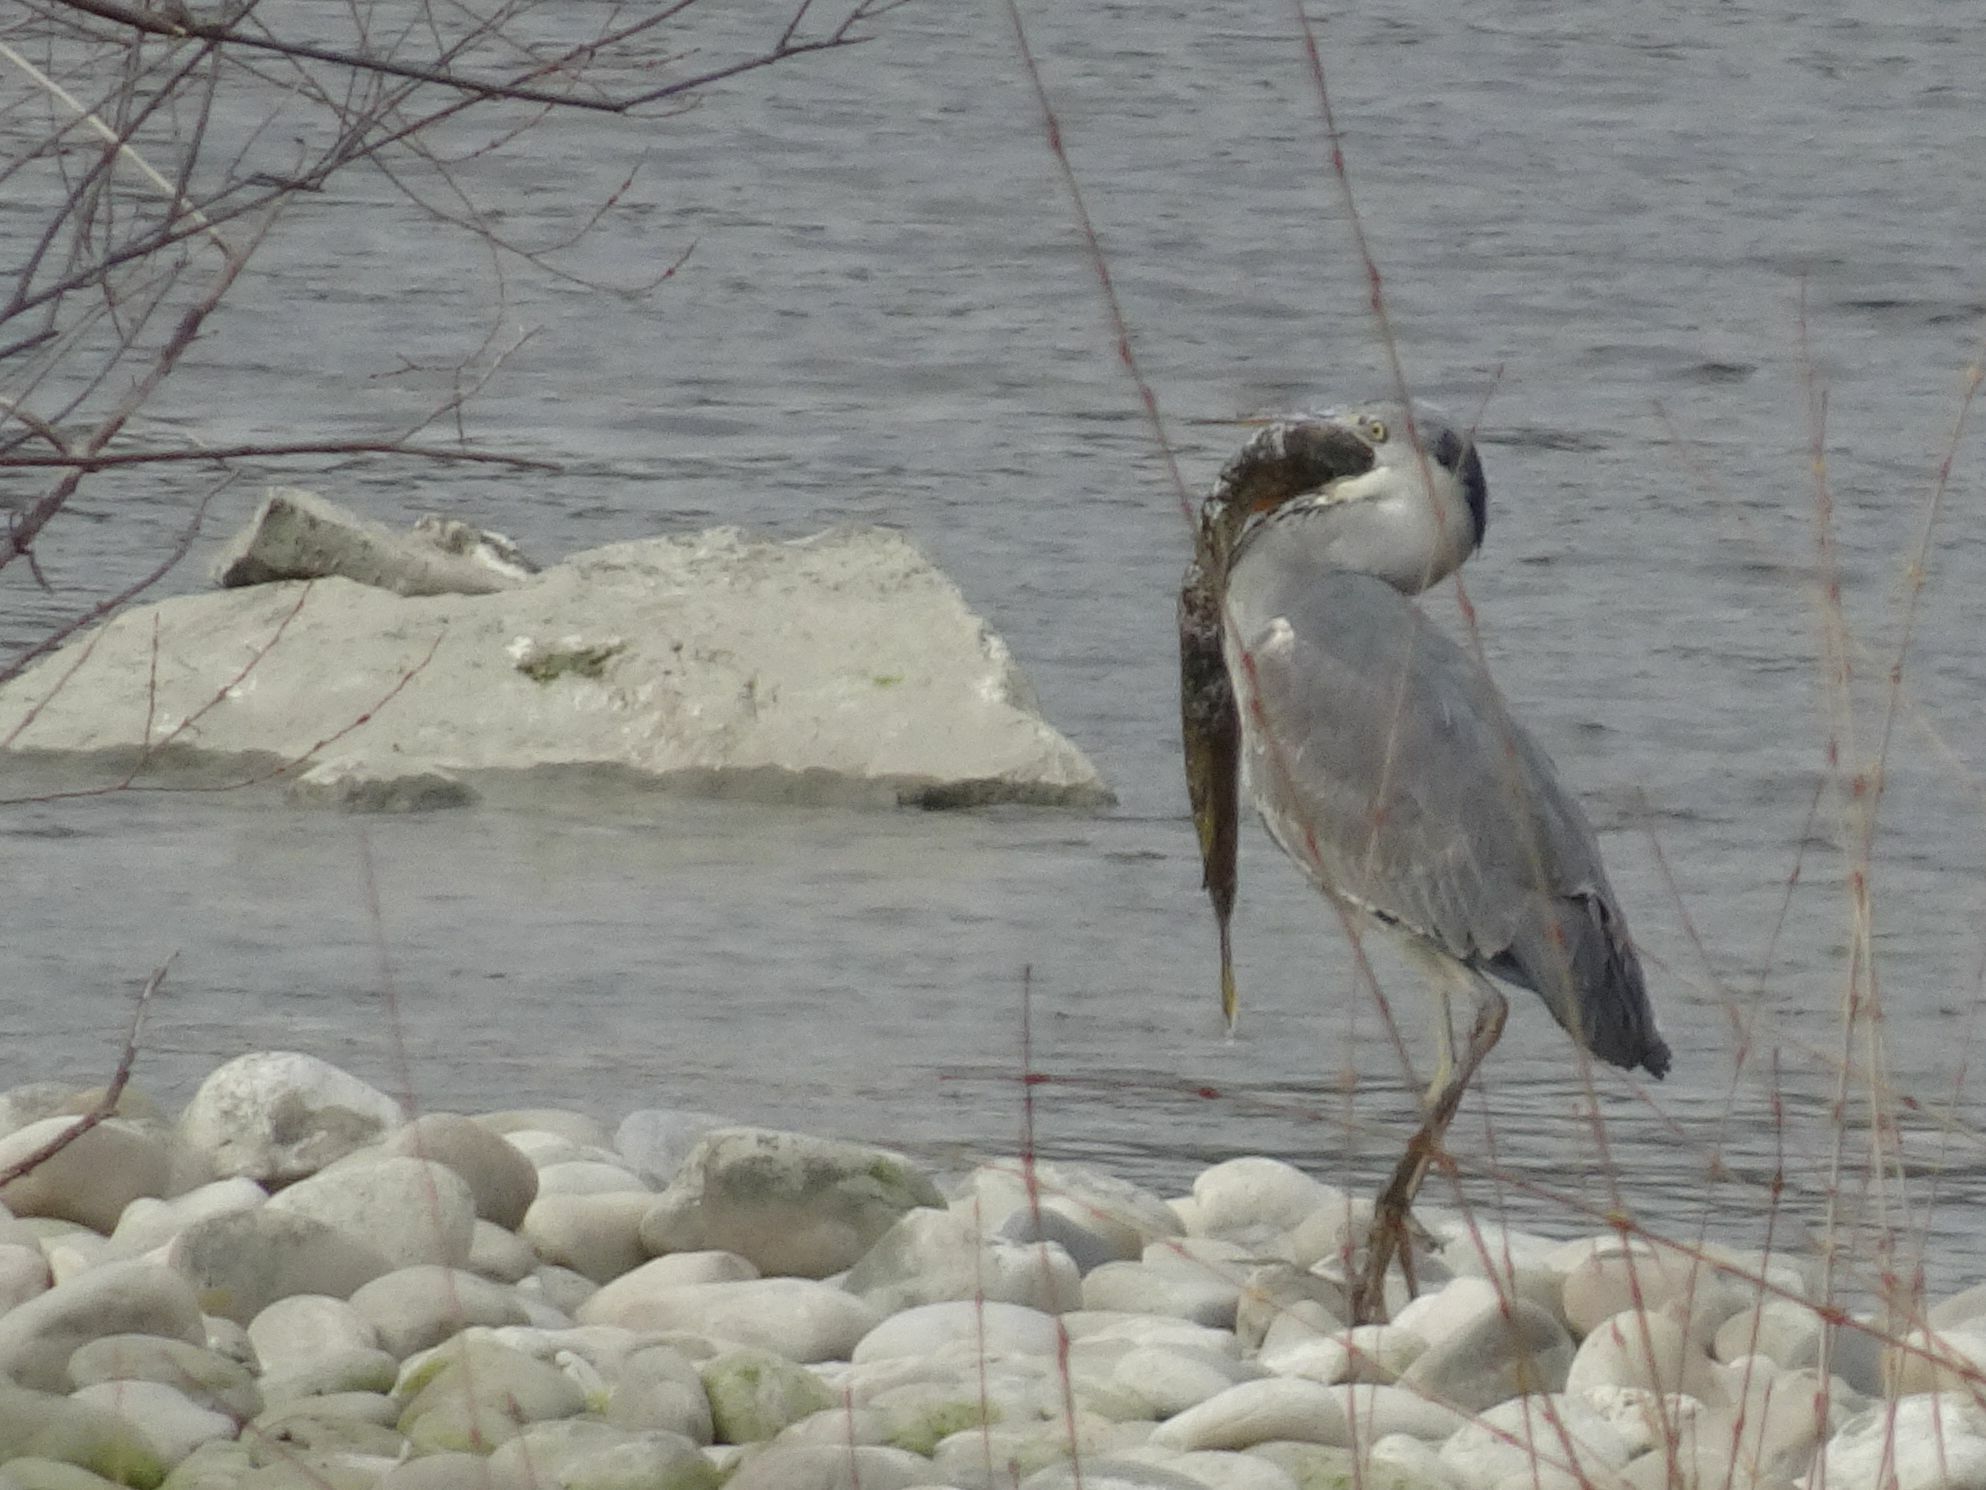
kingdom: Animalia
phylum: Chordata
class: Aves
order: Pelecaniformes
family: Ardeidae
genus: Ardea
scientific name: Ardea cinerea
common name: Grey heron
